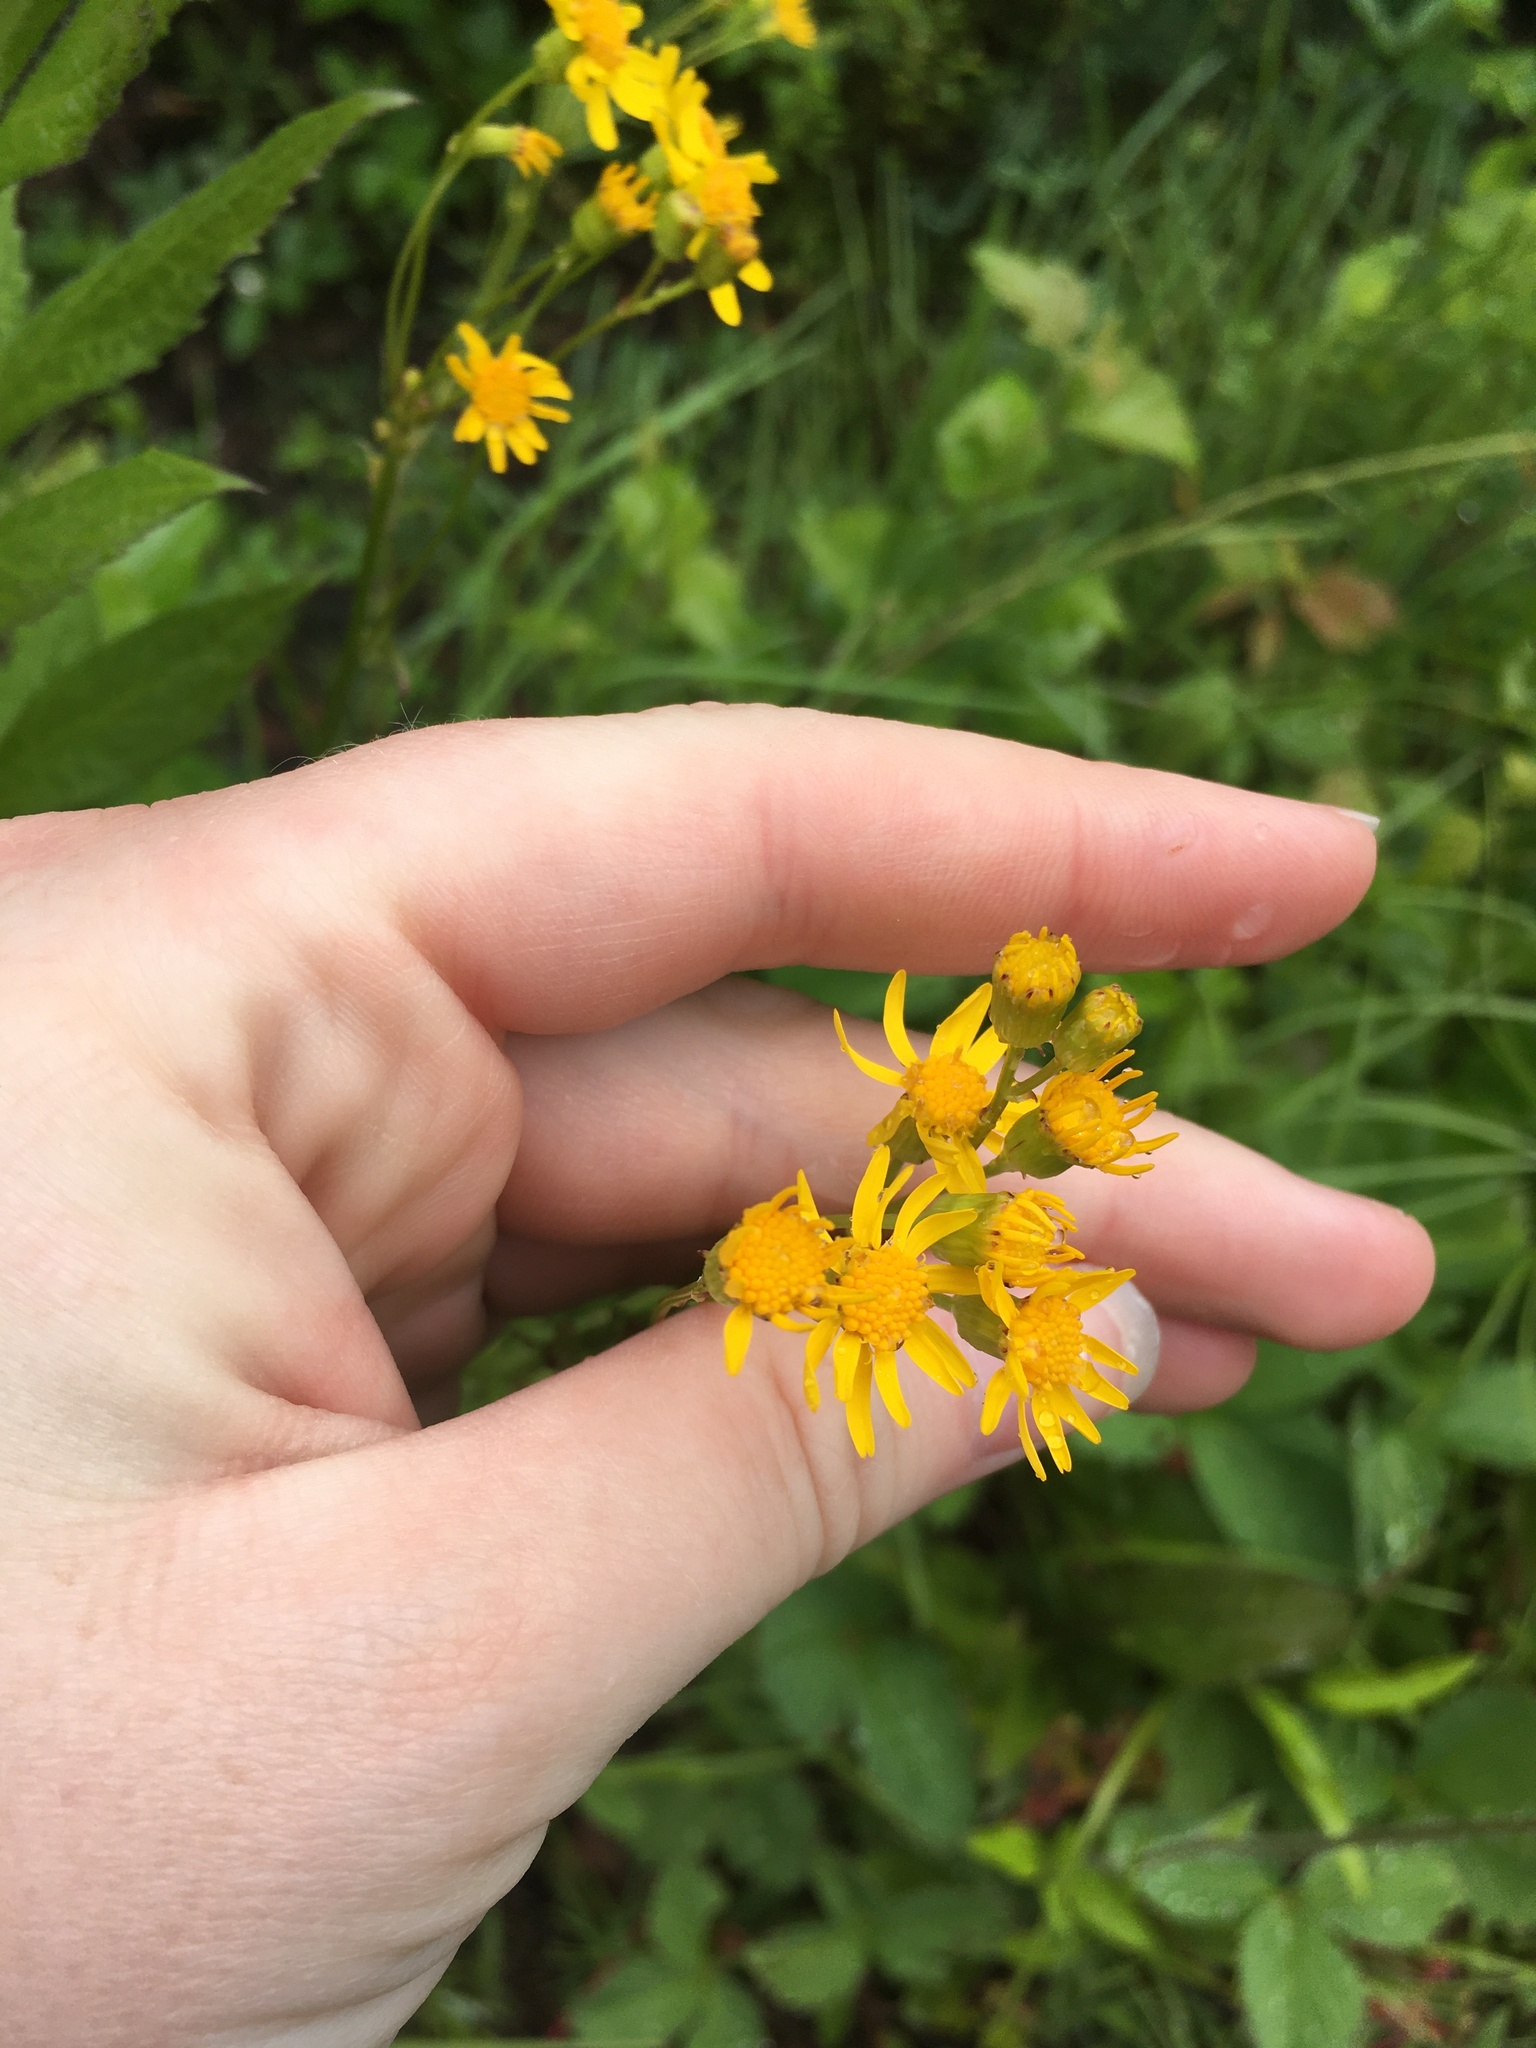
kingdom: Plantae
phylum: Tracheophyta
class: Magnoliopsida
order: Asterales
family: Asteraceae
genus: Packera
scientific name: Packera schweinitziana
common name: Schweinitz's ragwort
